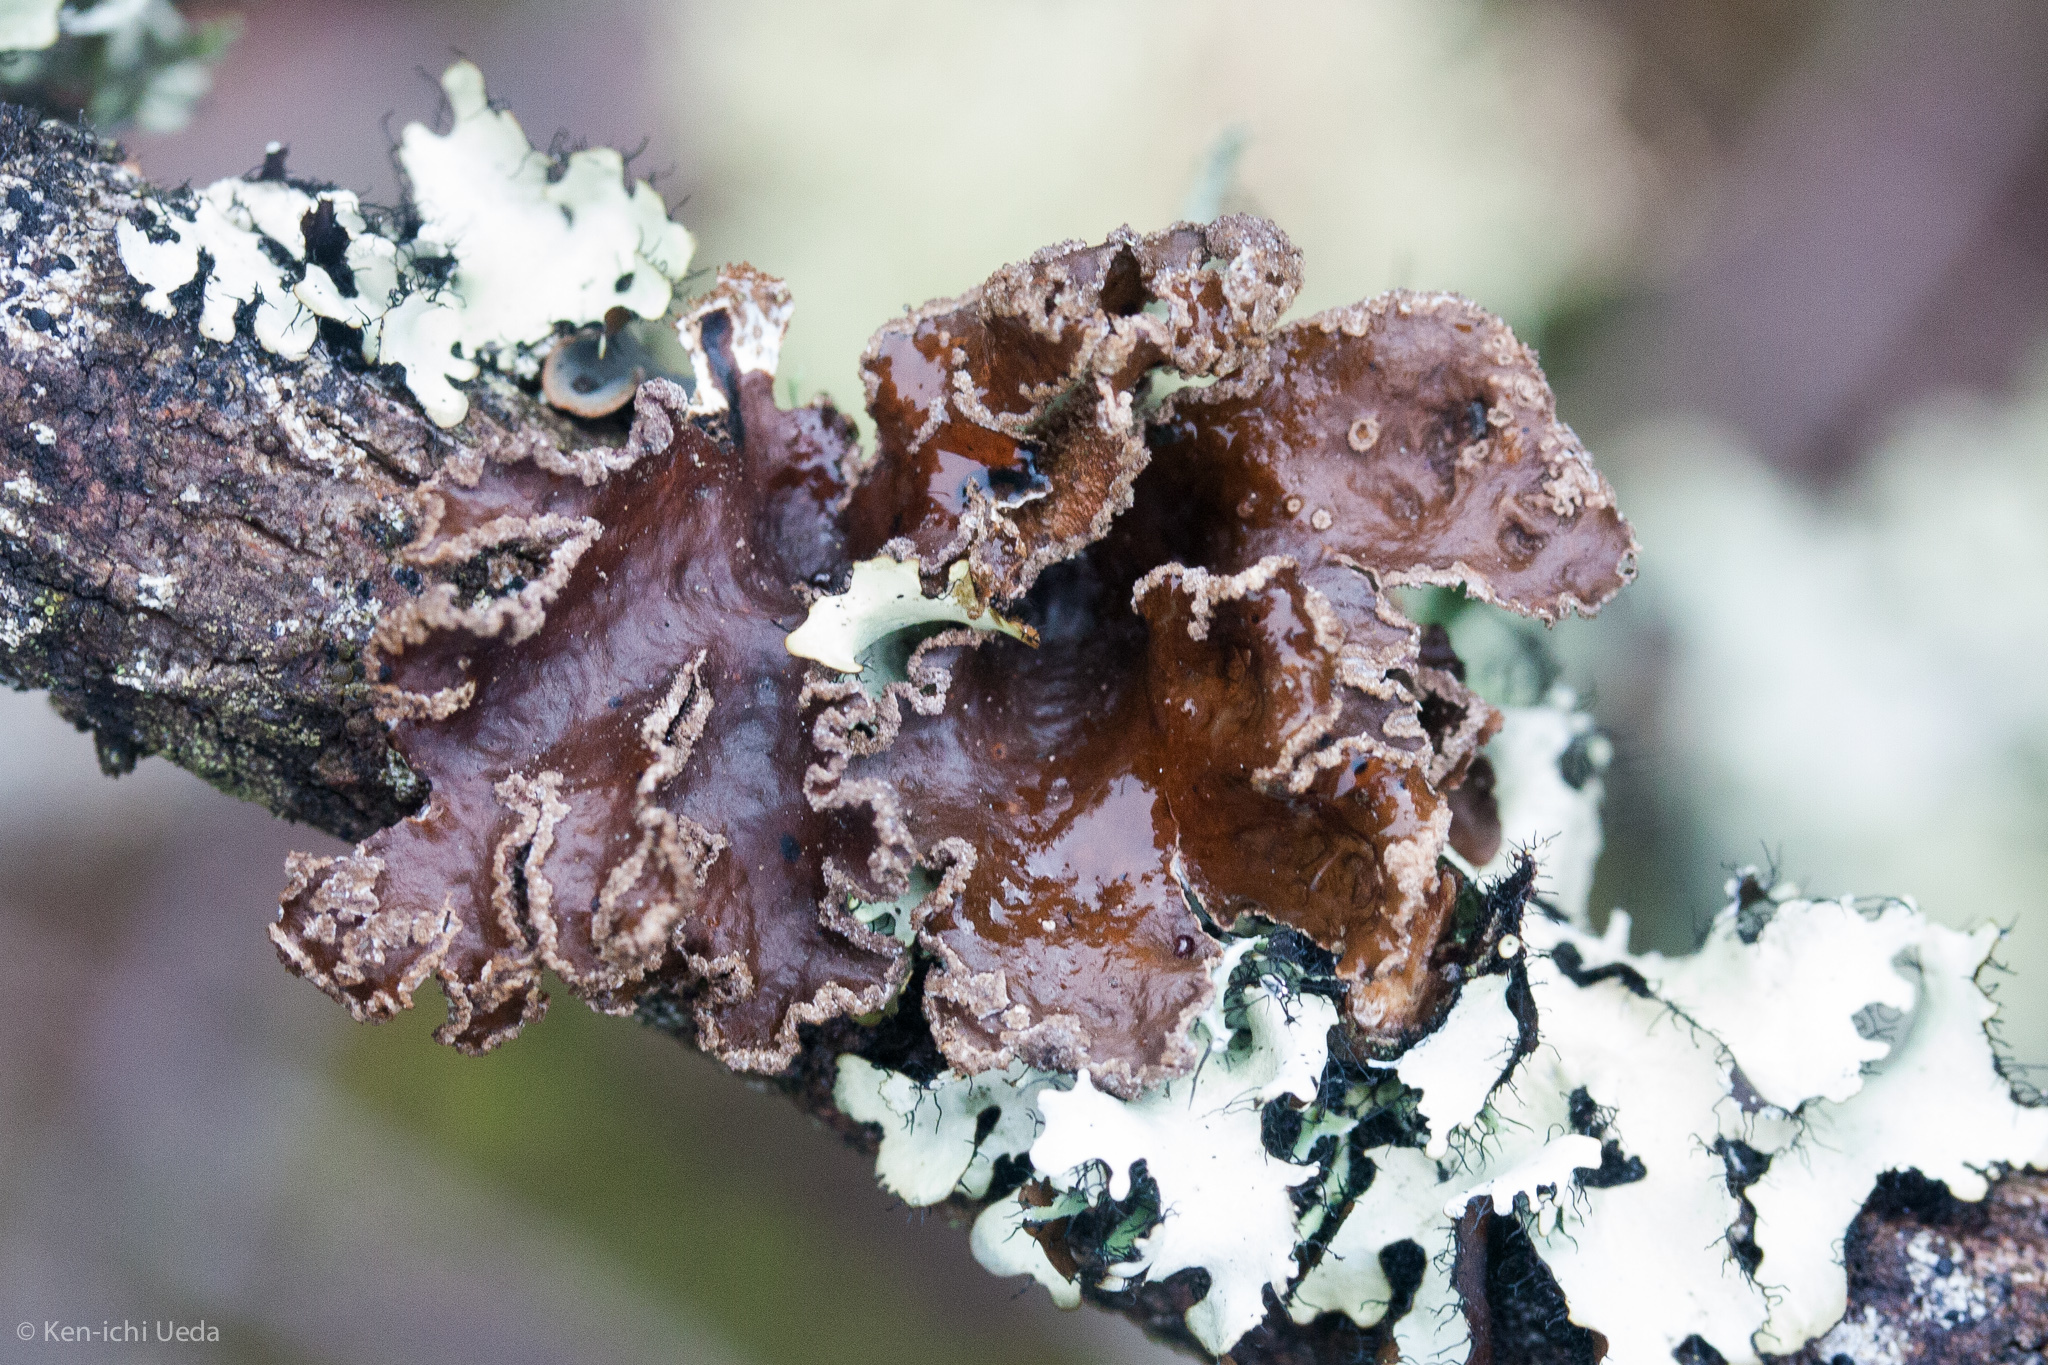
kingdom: Fungi
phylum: Ascomycota
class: Lecanoromycetes
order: Peltigerales
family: Lobariaceae
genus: Sticta
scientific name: Sticta limbata
